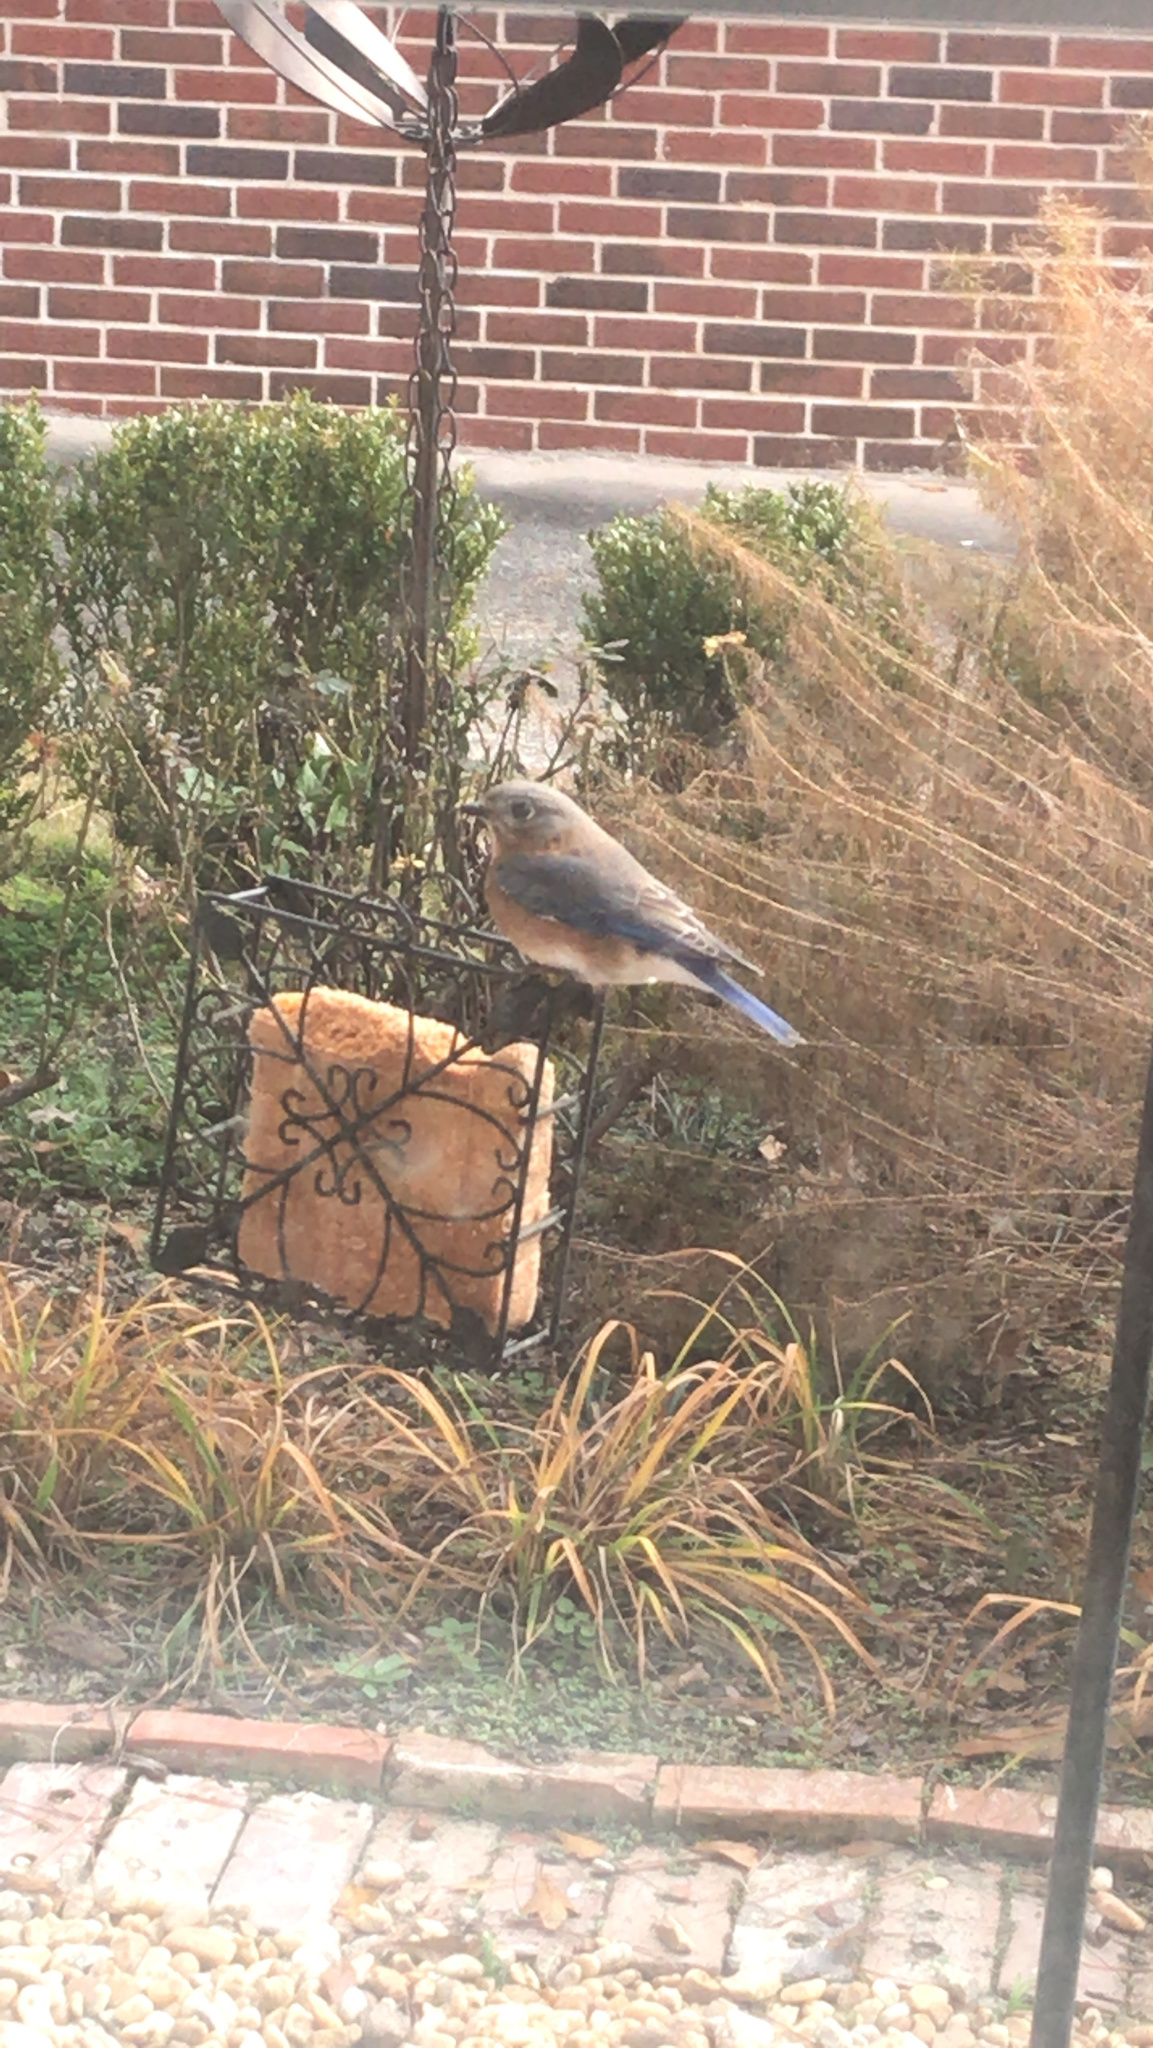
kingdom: Animalia
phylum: Chordata
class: Aves
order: Passeriformes
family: Turdidae
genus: Sialia
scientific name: Sialia sialis
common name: Eastern bluebird
